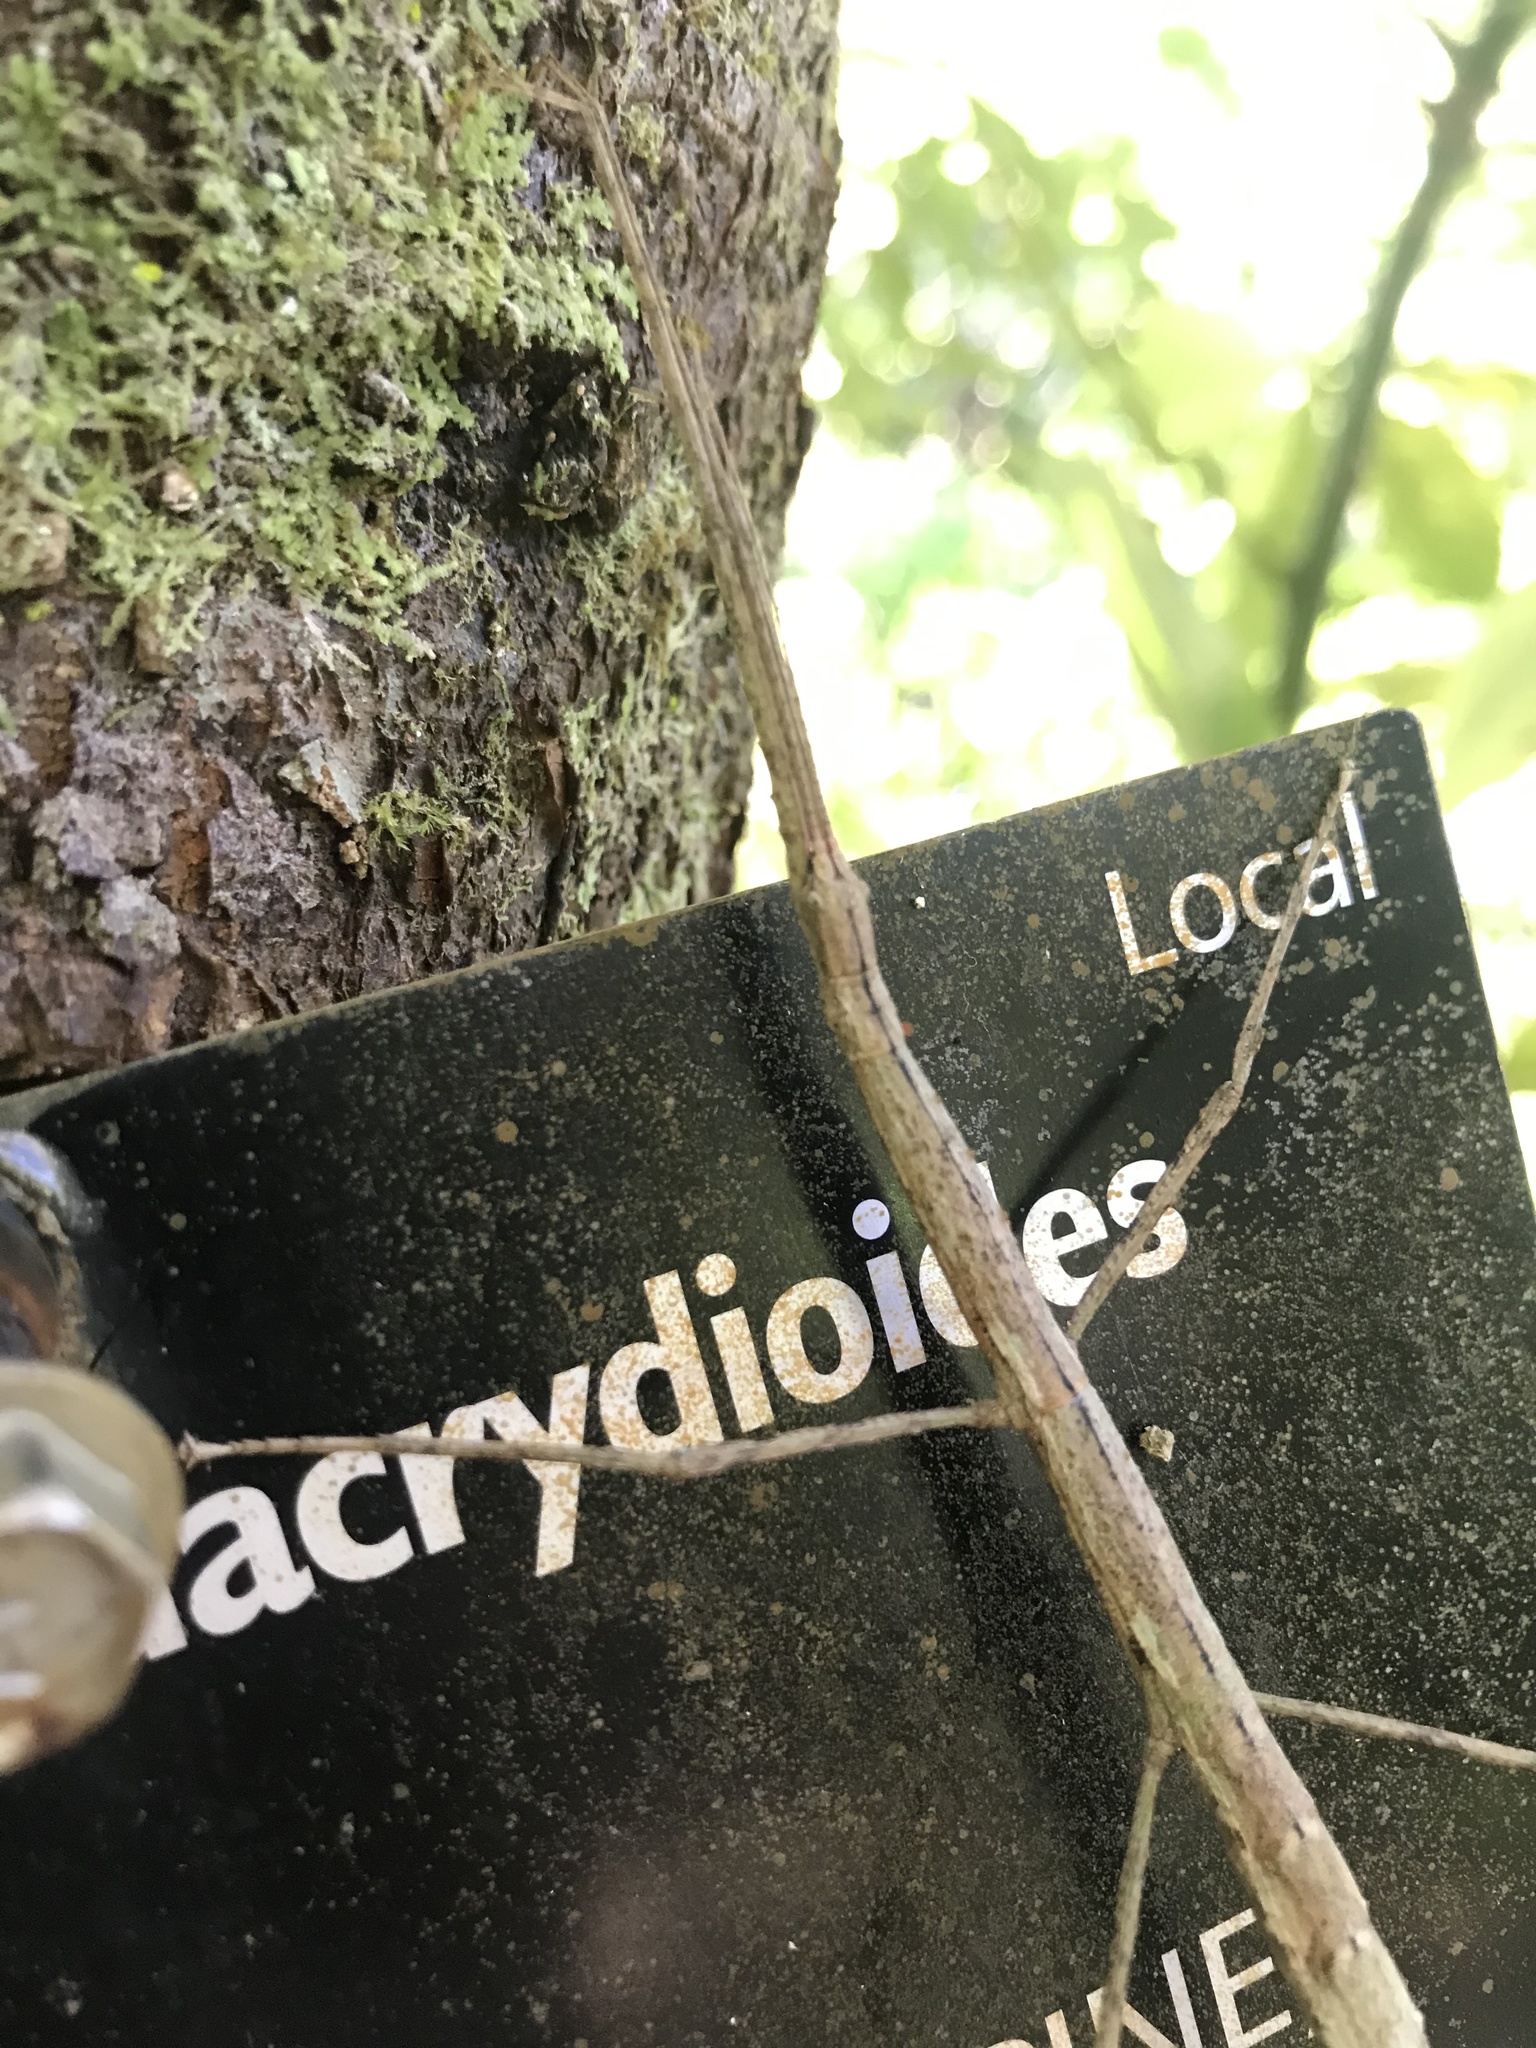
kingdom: Animalia
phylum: Arthropoda
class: Insecta
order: Phasmida
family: Phasmatidae
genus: Clitarchus
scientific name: Clitarchus hookeri
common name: Smooth stick insect
